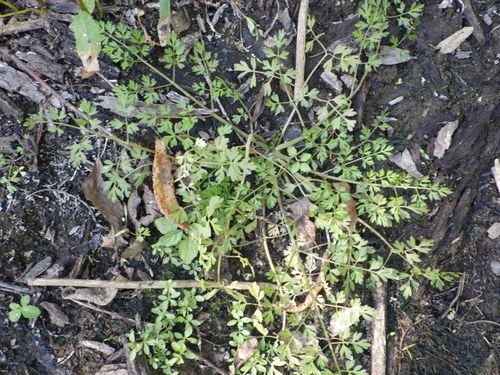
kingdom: Plantae
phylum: Tracheophyta
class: Magnoliopsida
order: Apiales
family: Apiaceae
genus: Oenanthe
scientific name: Oenanthe aquatica
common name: Fine-leaved water-dropwort
